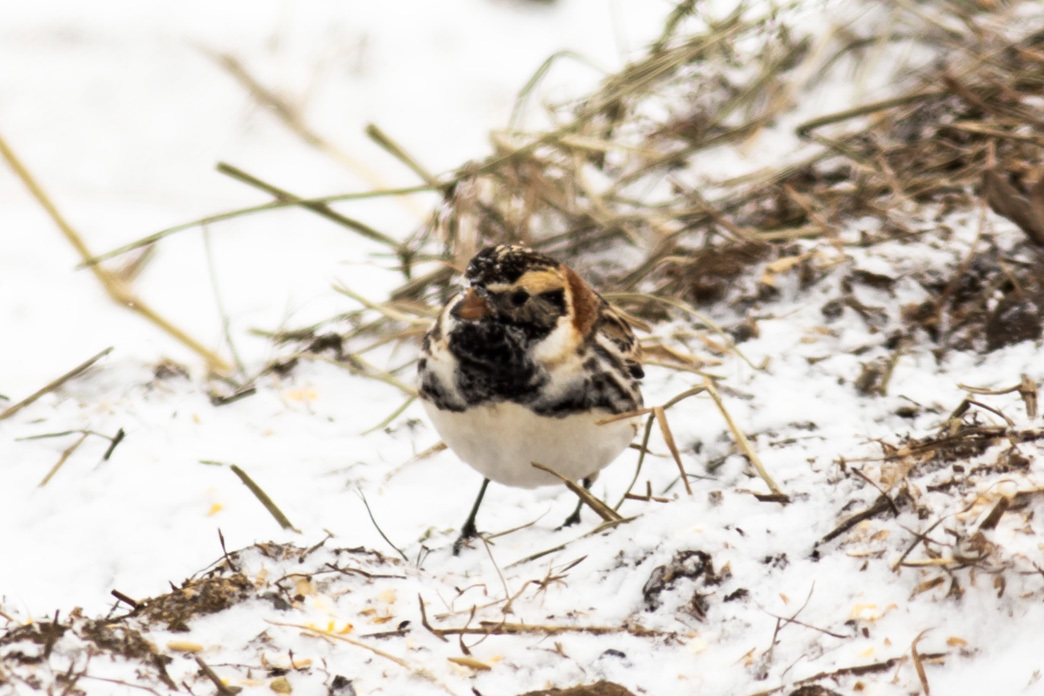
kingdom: Animalia
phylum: Chordata
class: Aves
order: Passeriformes
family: Calcariidae
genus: Calcarius
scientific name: Calcarius lapponicus
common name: Lapland longspur
